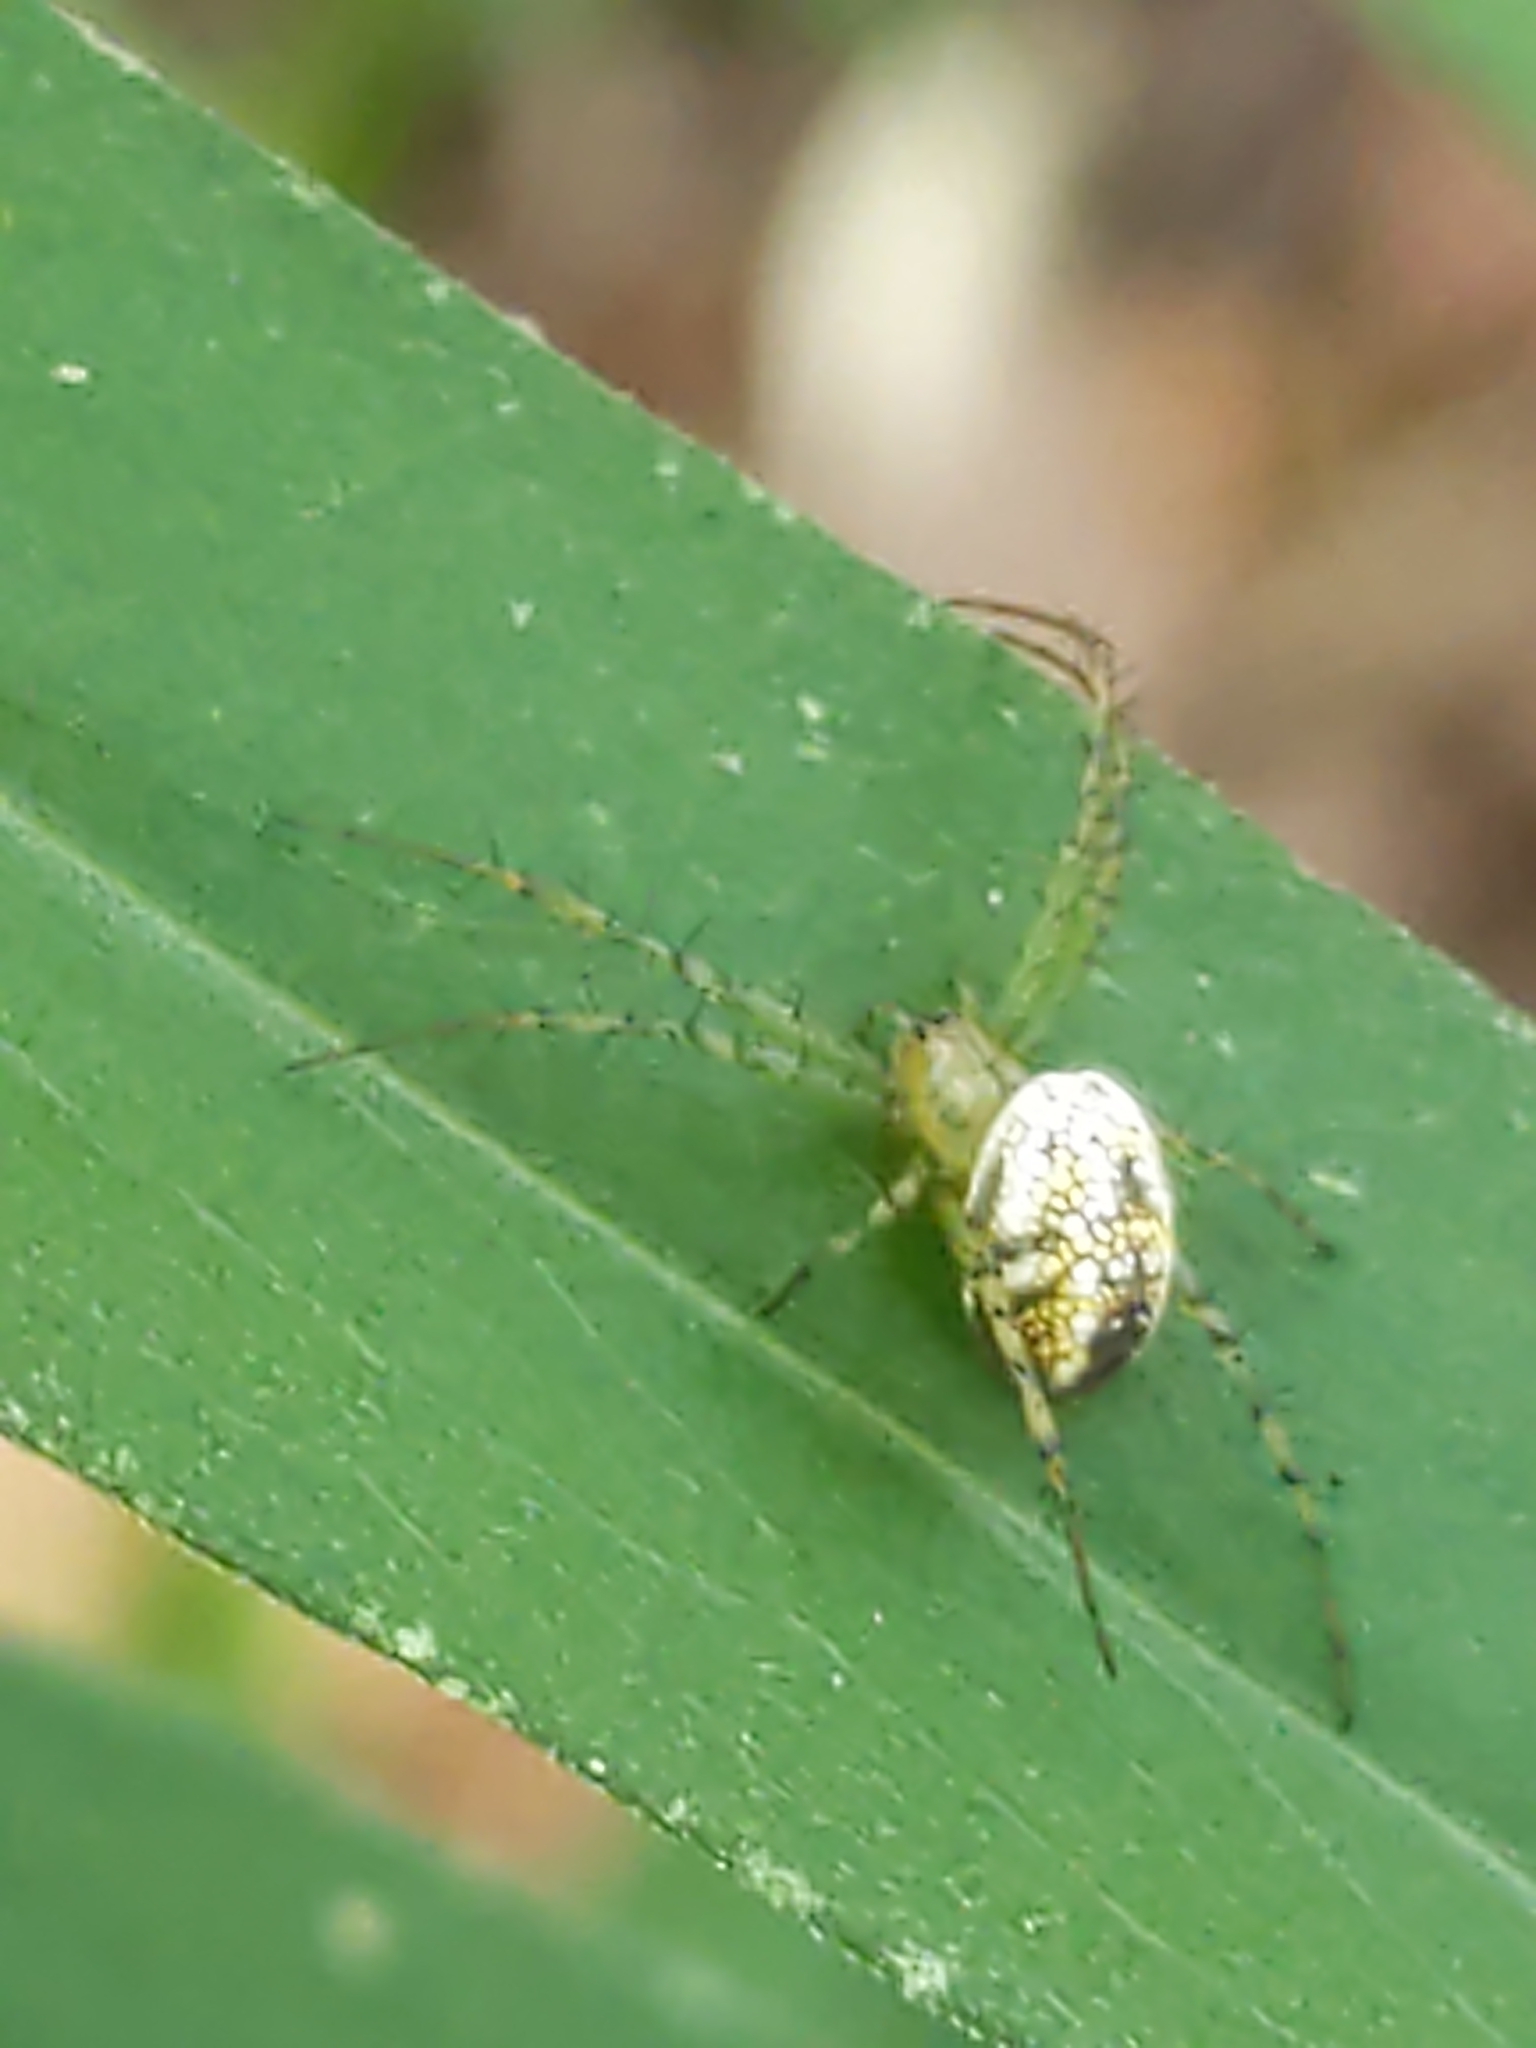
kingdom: Animalia
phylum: Arthropoda
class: Arachnida
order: Araneae
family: Araneidae
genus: Mangora
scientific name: Mangora
